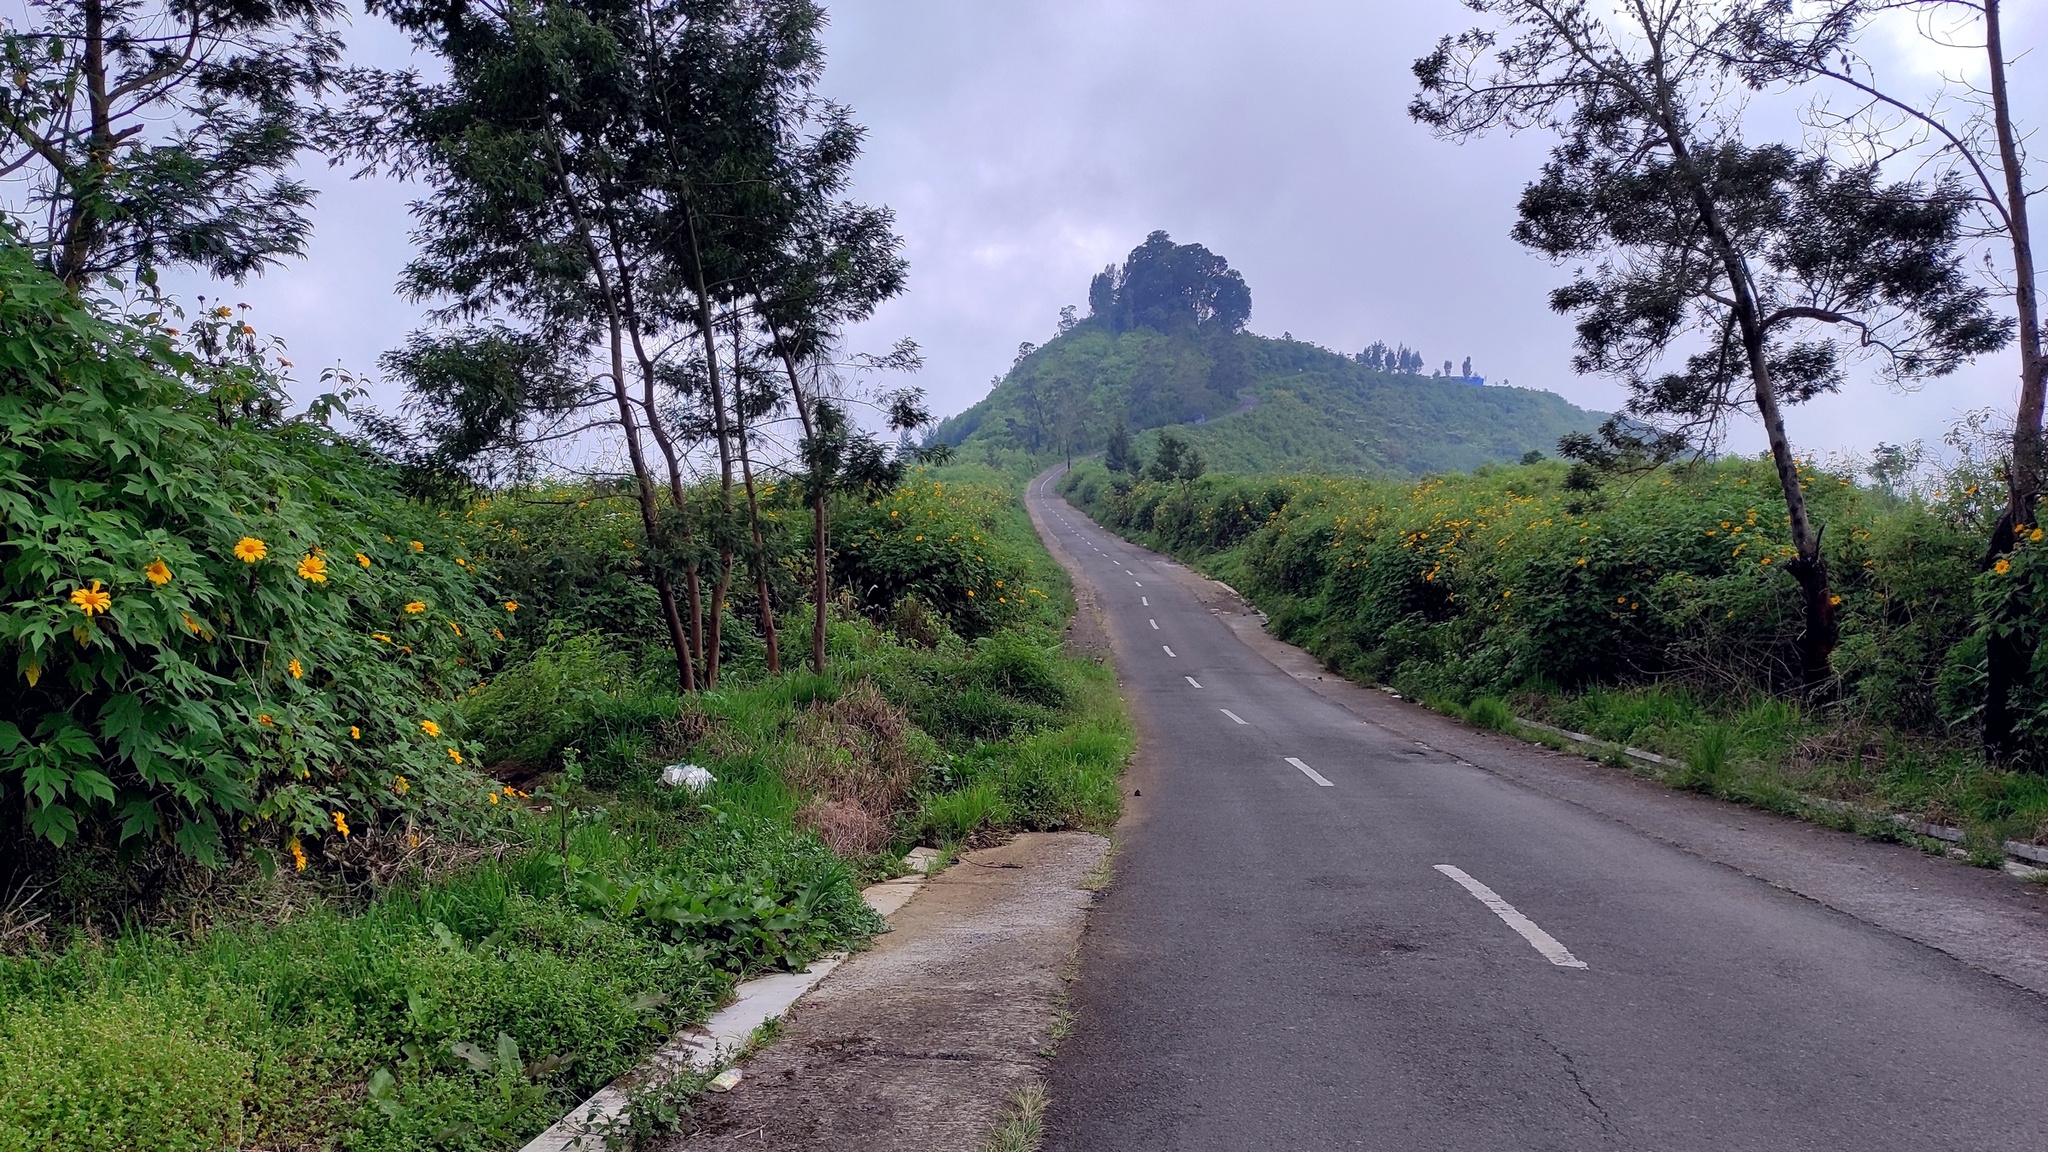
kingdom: Plantae
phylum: Tracheophyta
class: Magnoliopsida
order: Asterales
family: Asteraceae
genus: Tithonia
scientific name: Tithonia diversifolia
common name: Tree marigold
